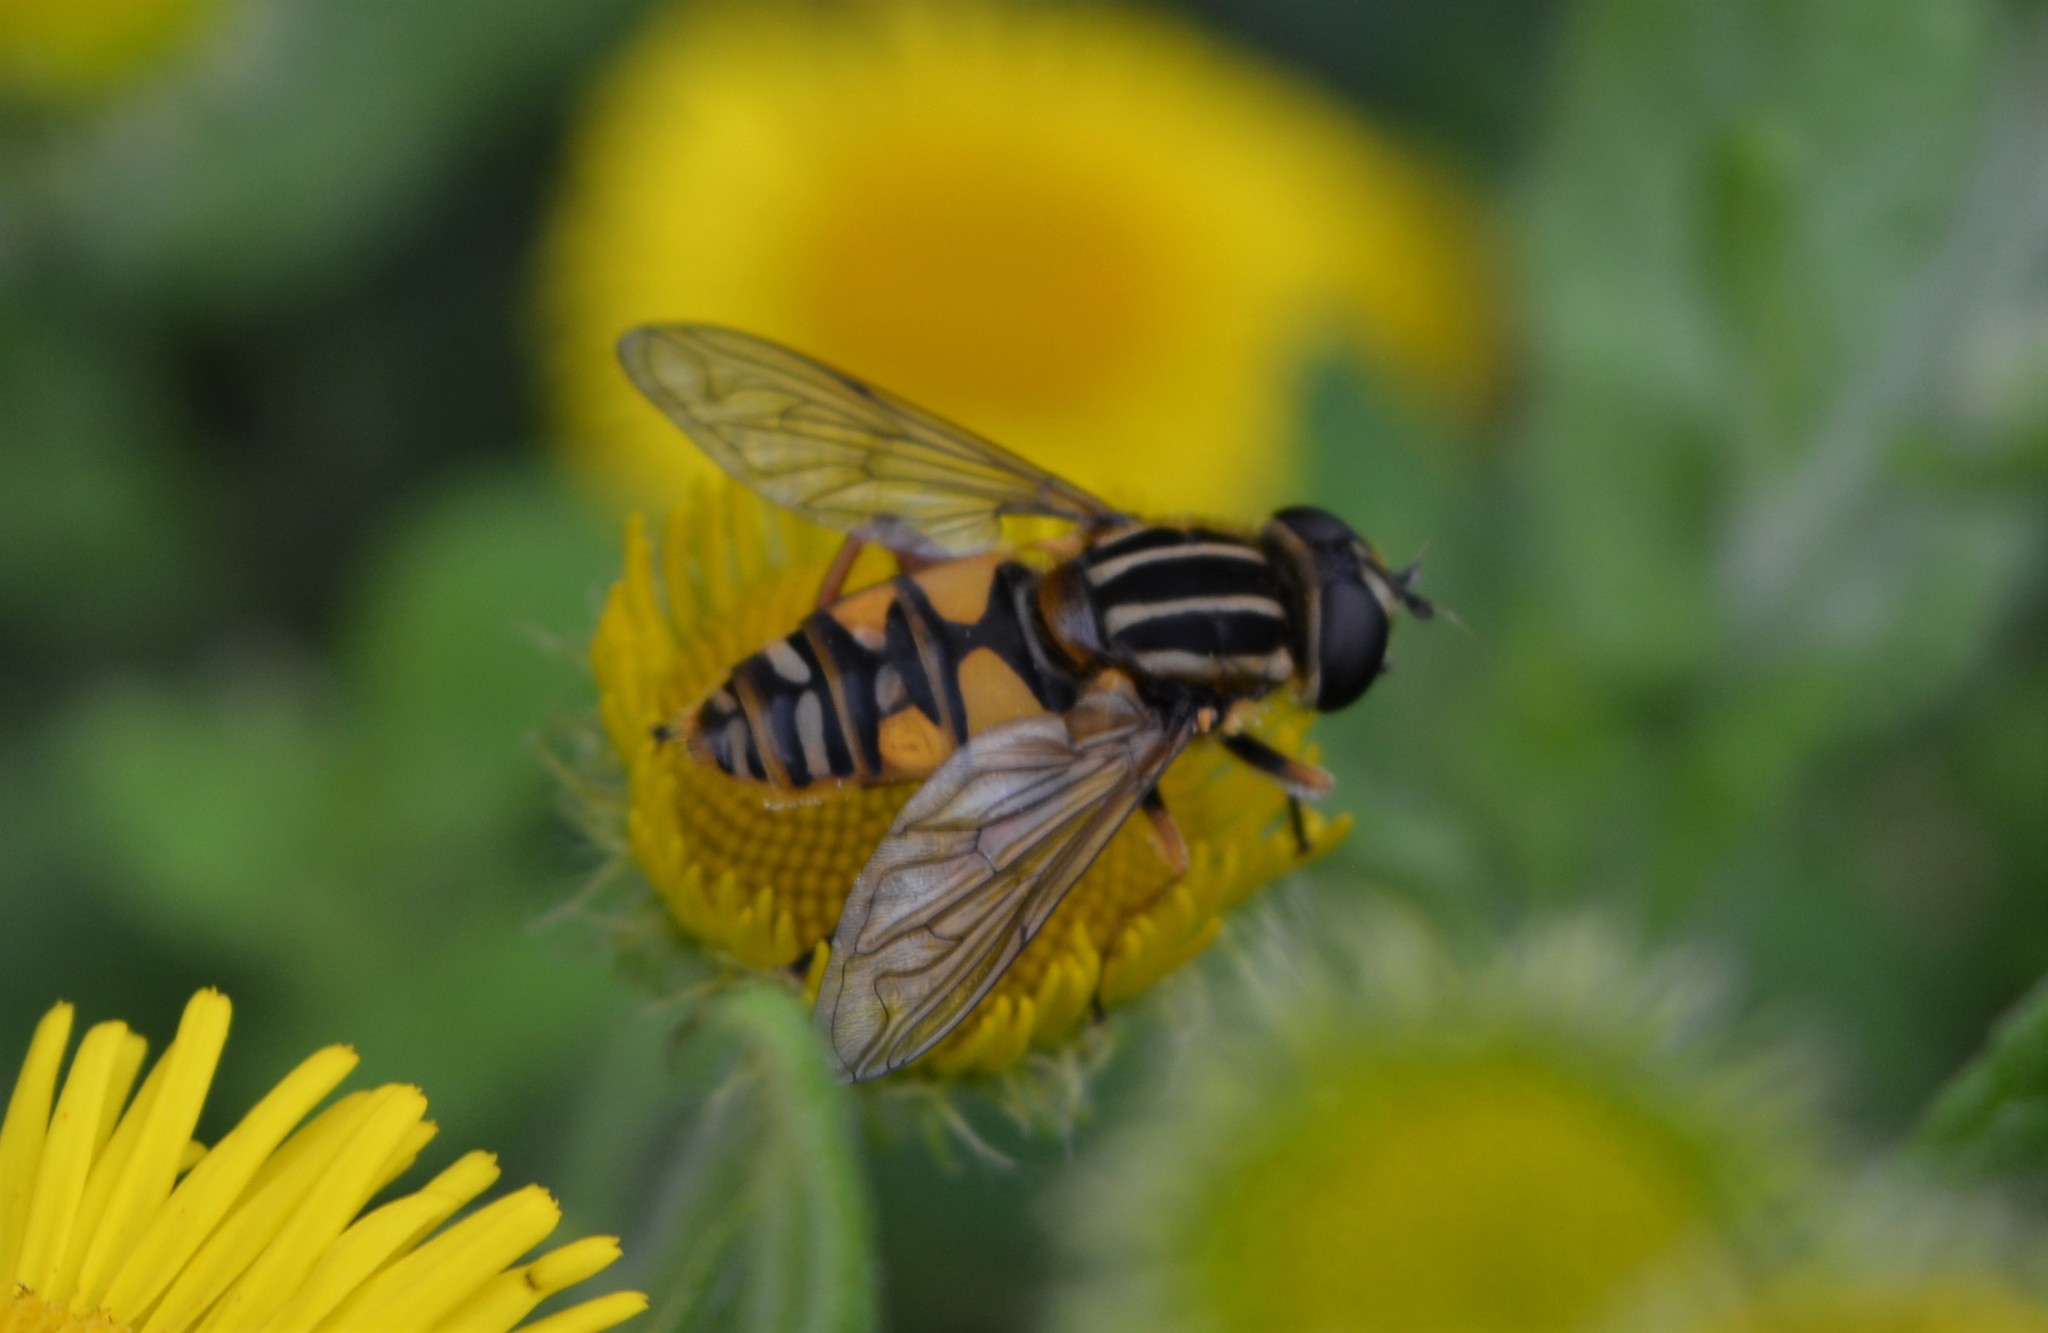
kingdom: Animalia
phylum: Arthropoda
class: Insecta
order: Diptera
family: Syrphidae
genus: Helophilus
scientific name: Helophilus pendulus
